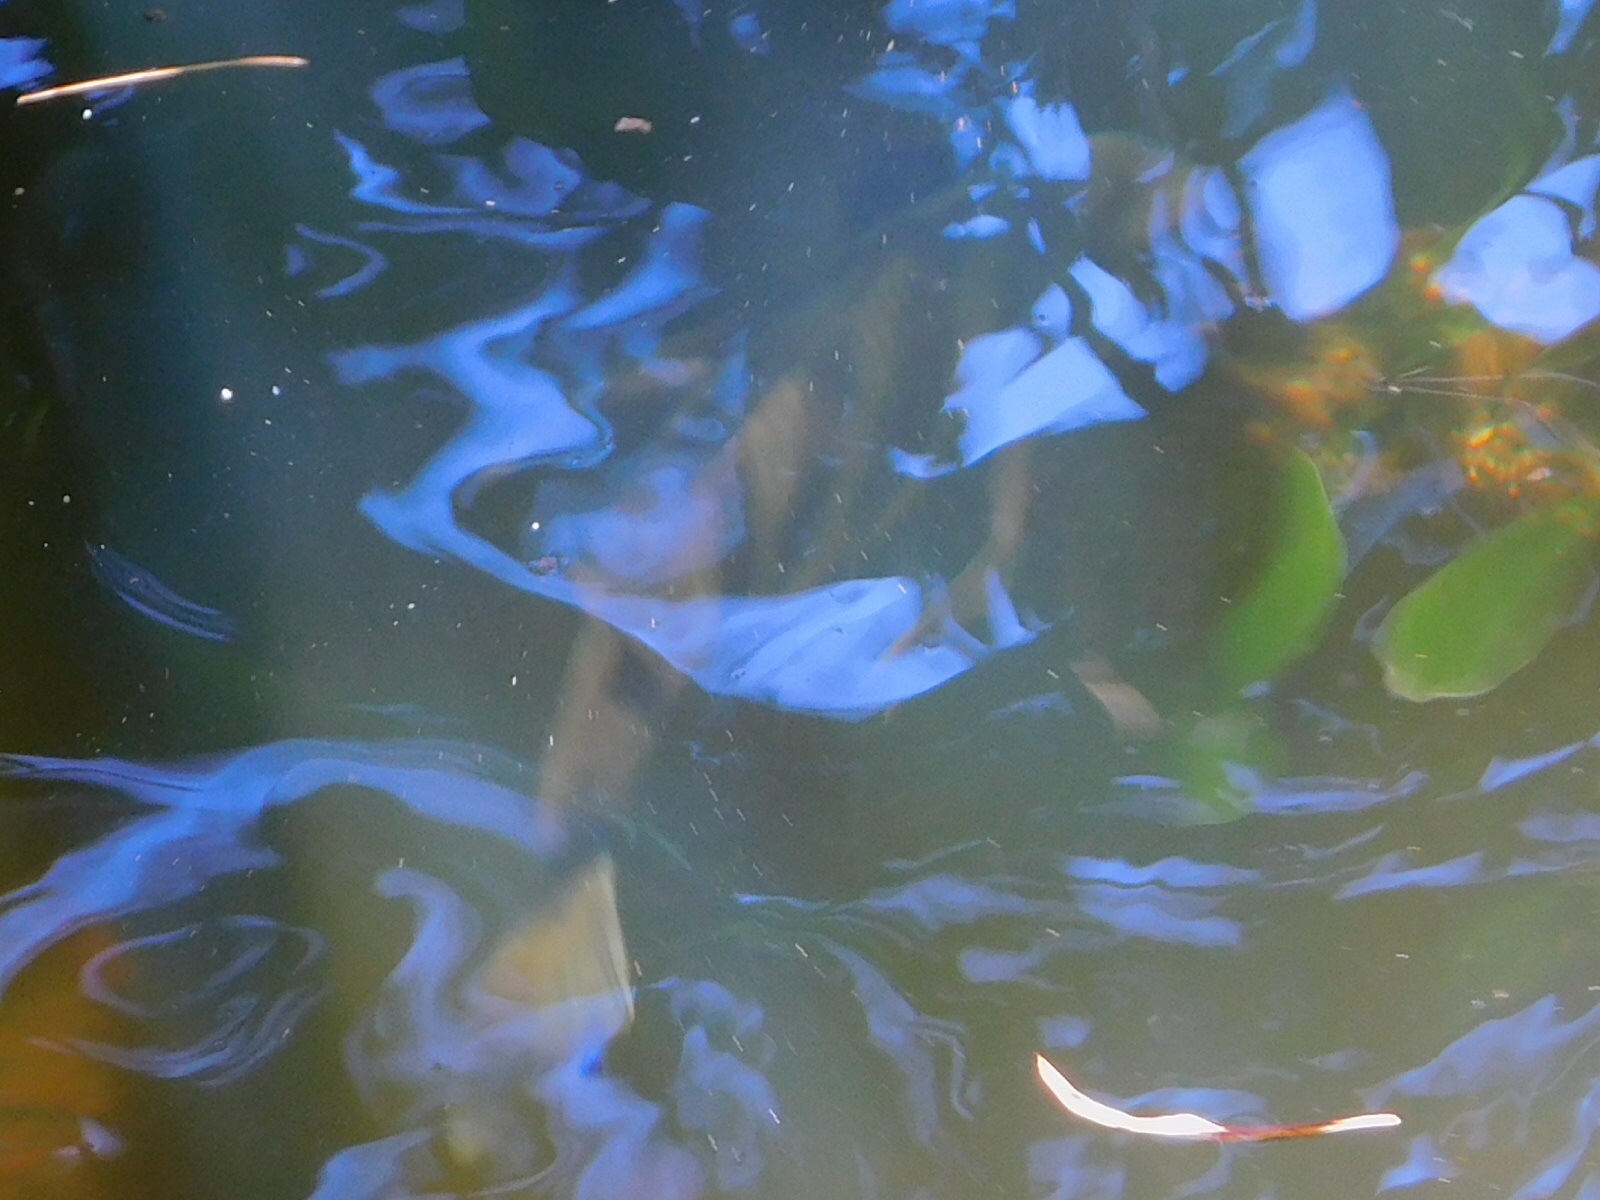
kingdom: Animalia
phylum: Chordata
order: Perciformes
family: Sparidae
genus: Archosargus
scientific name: Archosargus probatocephalus
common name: Sheepshead
